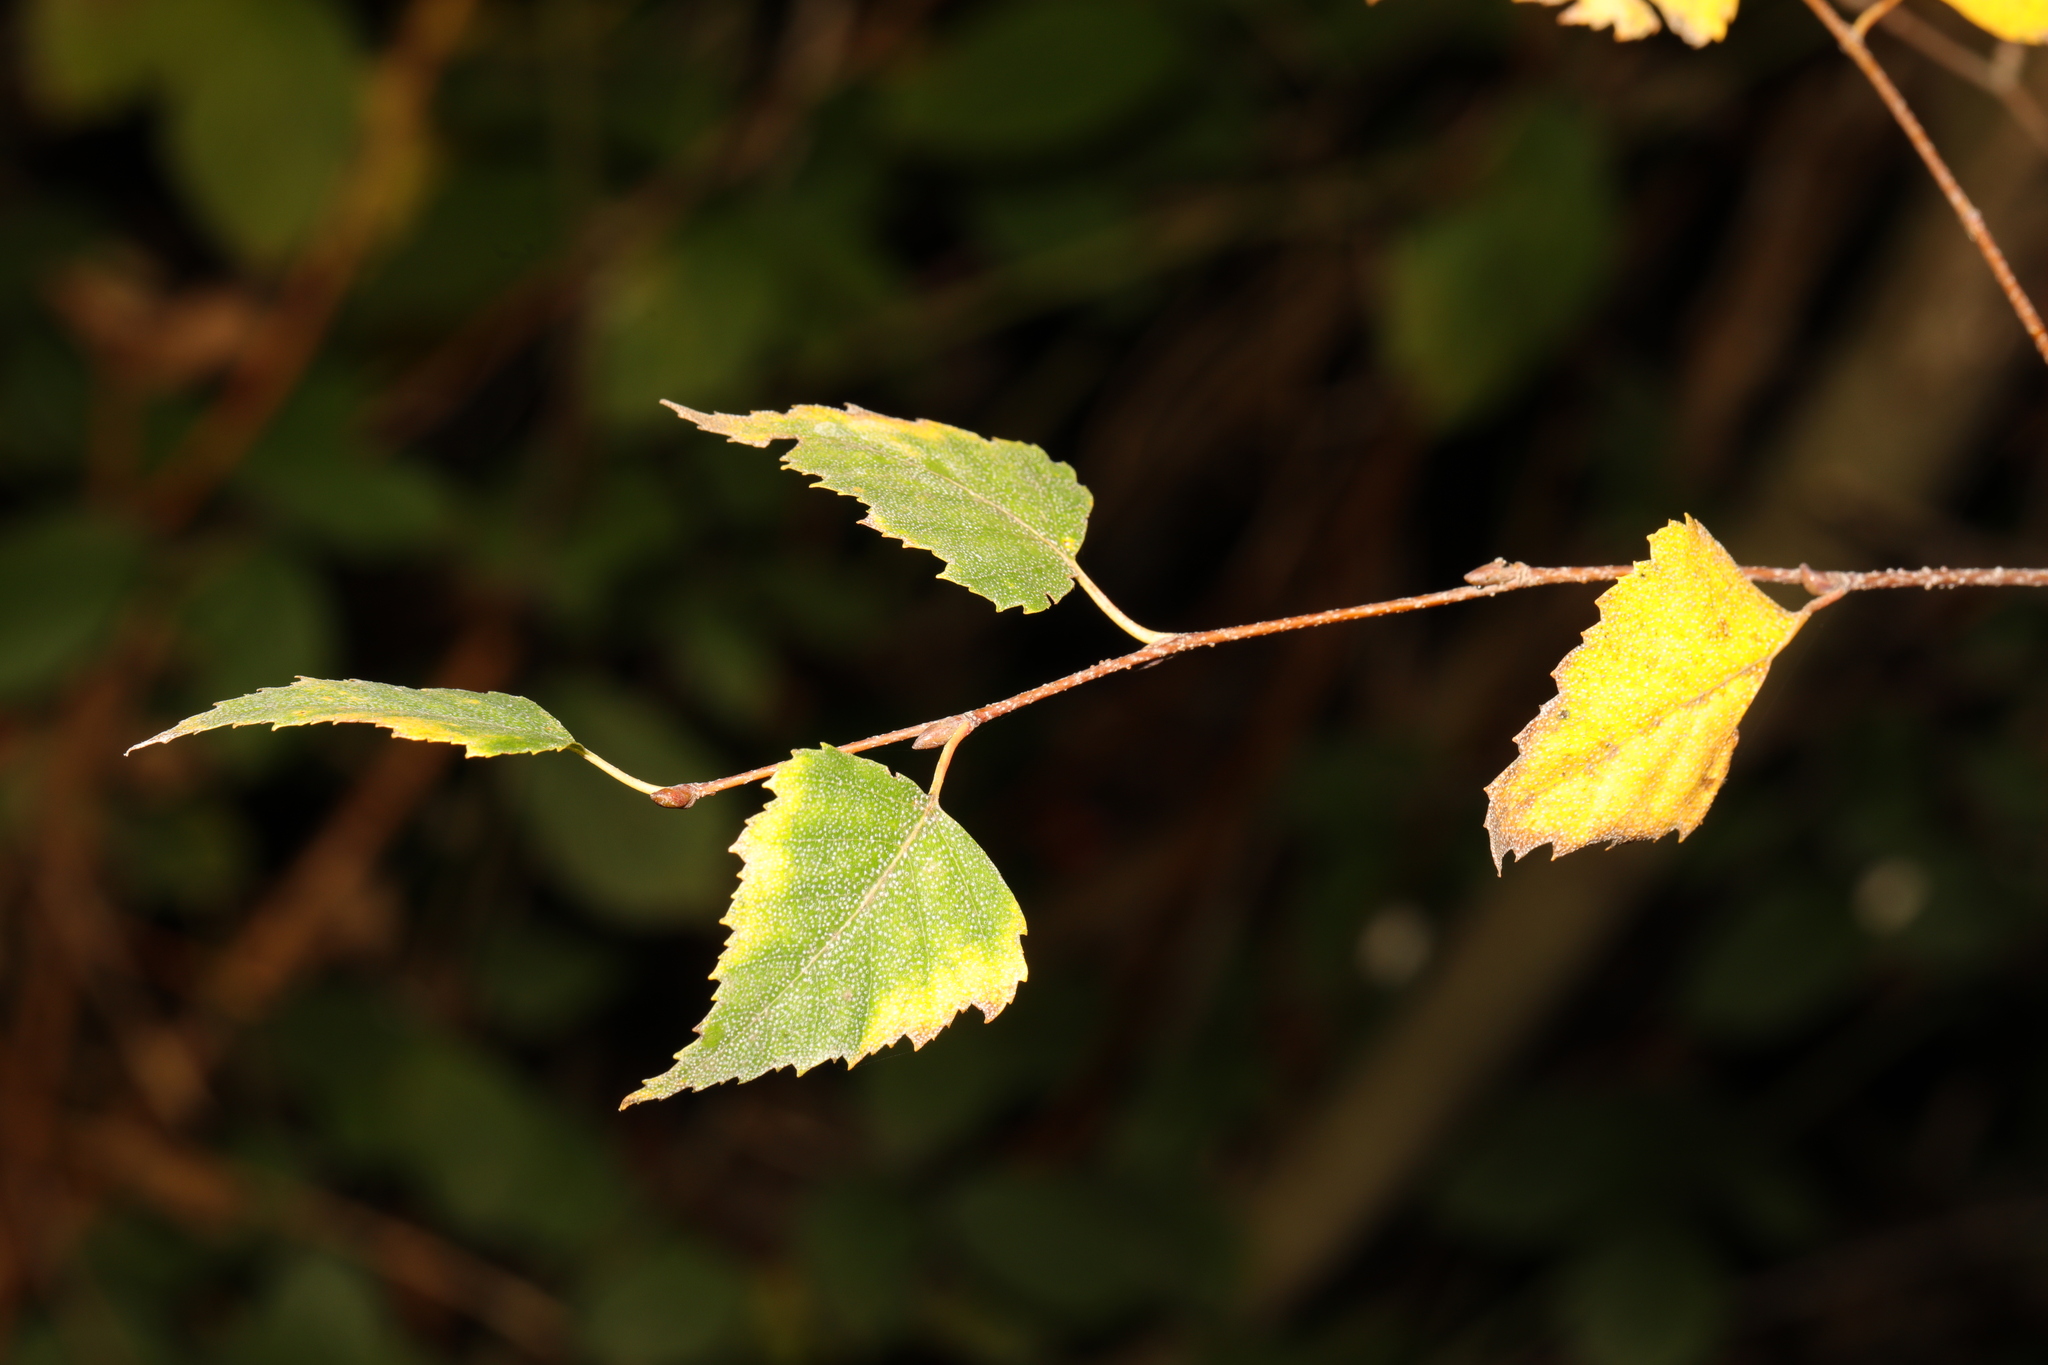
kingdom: Plantae
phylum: Tracheophyta
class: Magnoliopsida
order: Fagales
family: Betulaceae
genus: Betula
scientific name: Betula pendula
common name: Silver birch
